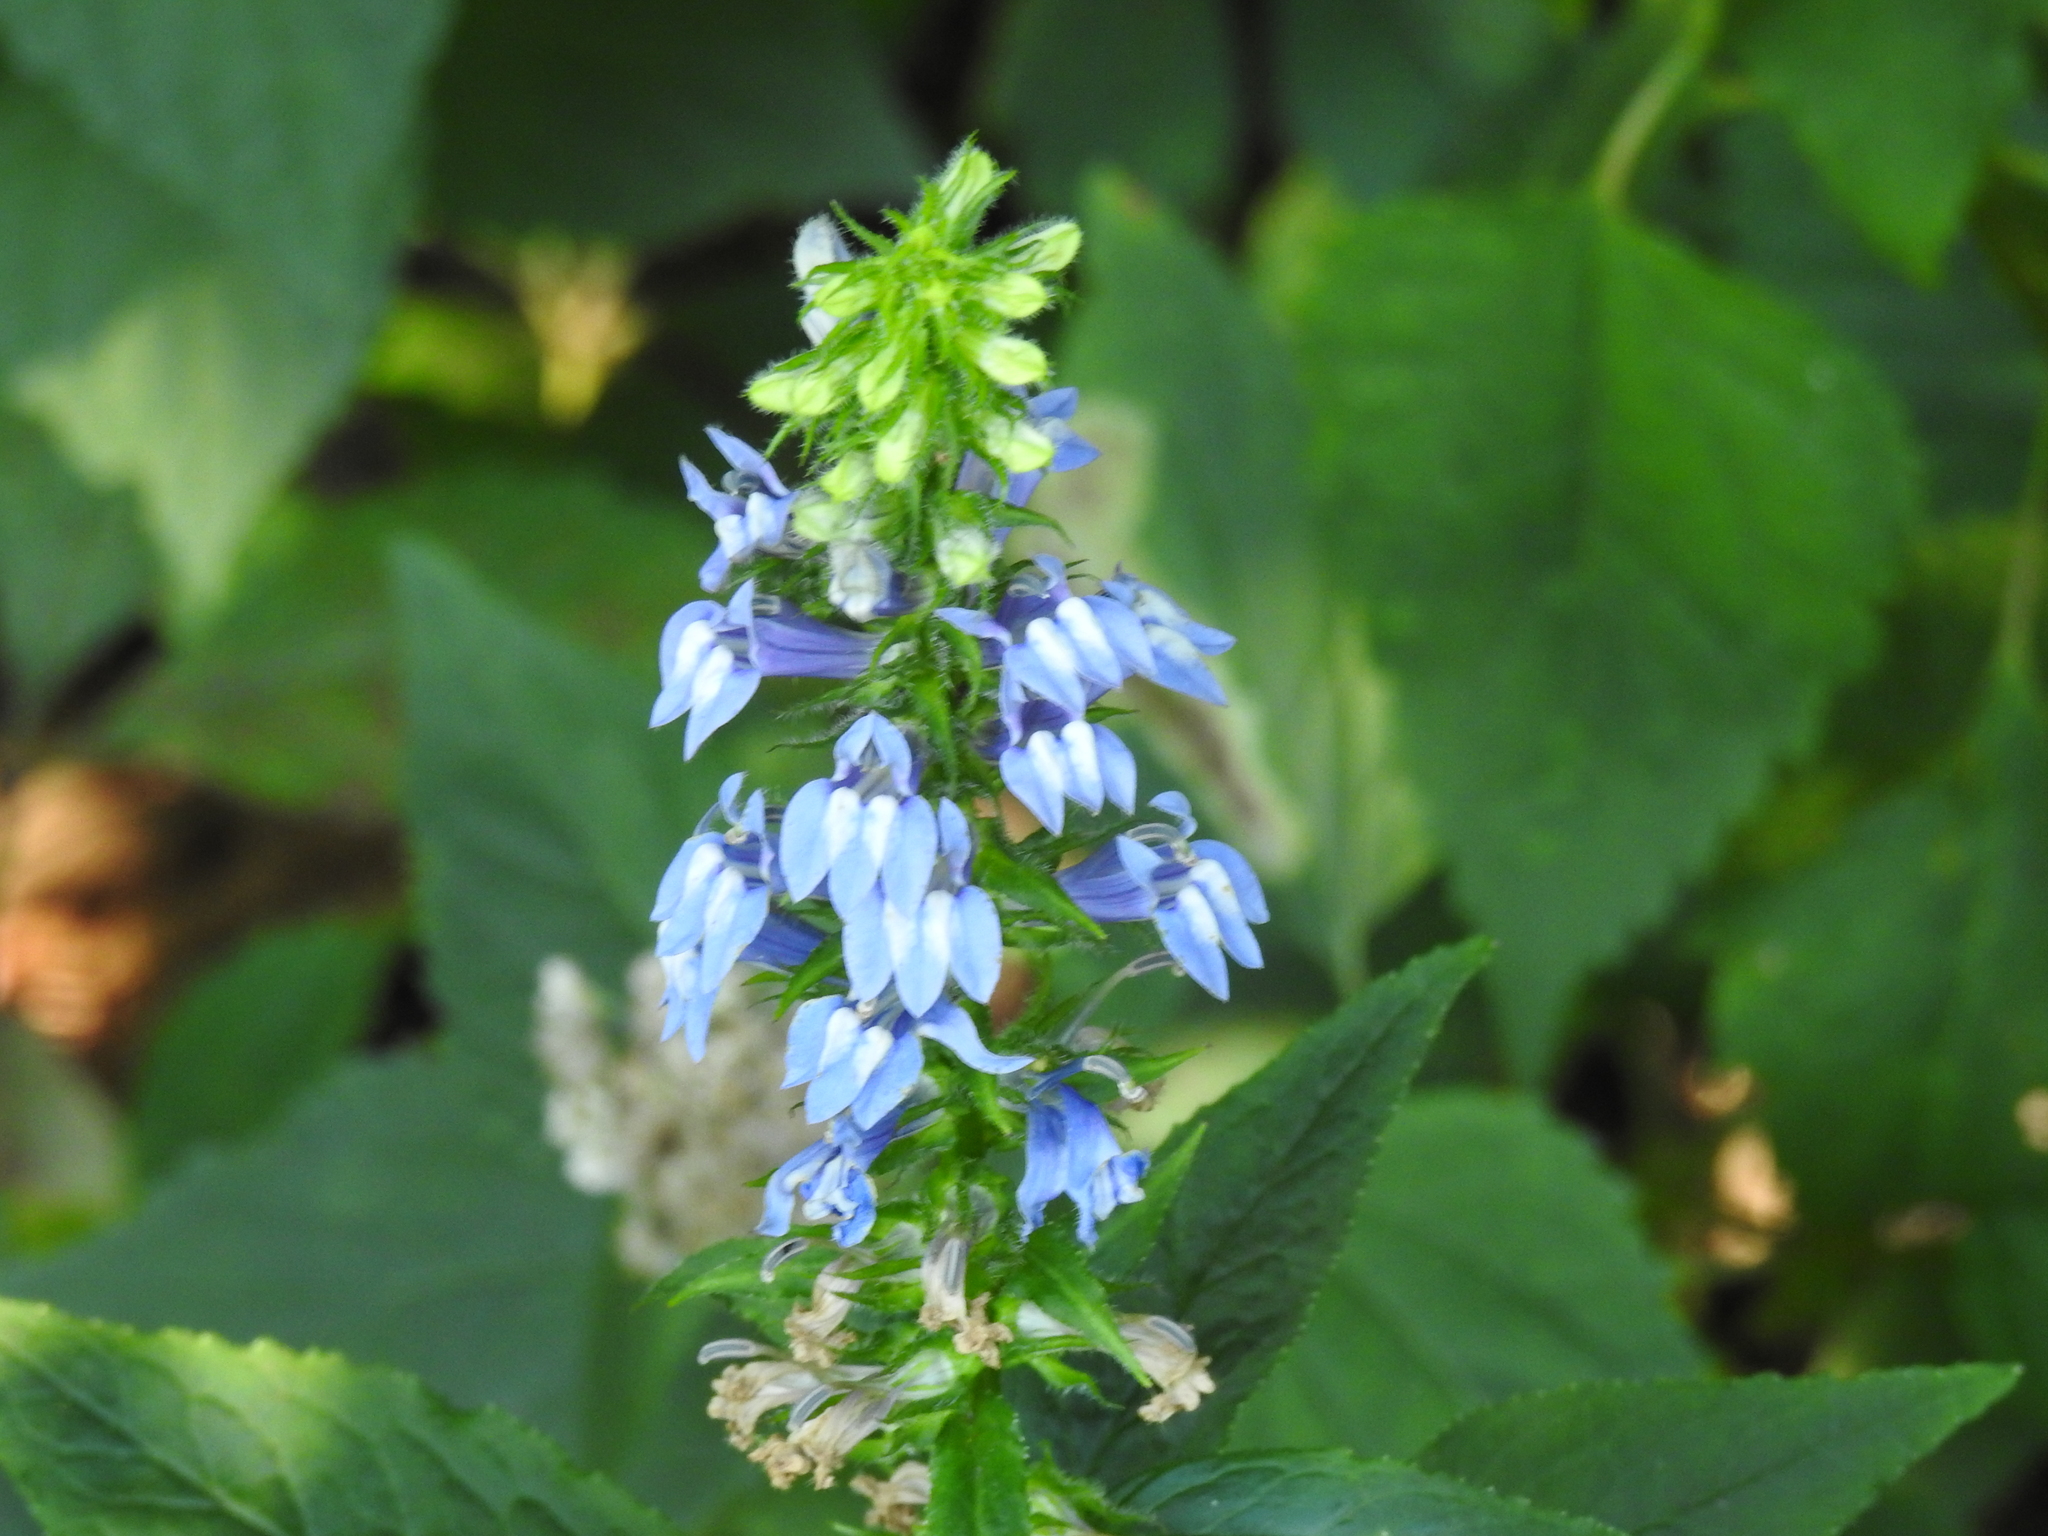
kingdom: Plantae
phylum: Tracheophyta
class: Magnoliopsida
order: Asterales
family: Campanulaceae
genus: Lobelia
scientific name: Lobelia siphilitica
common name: Great lobelia
